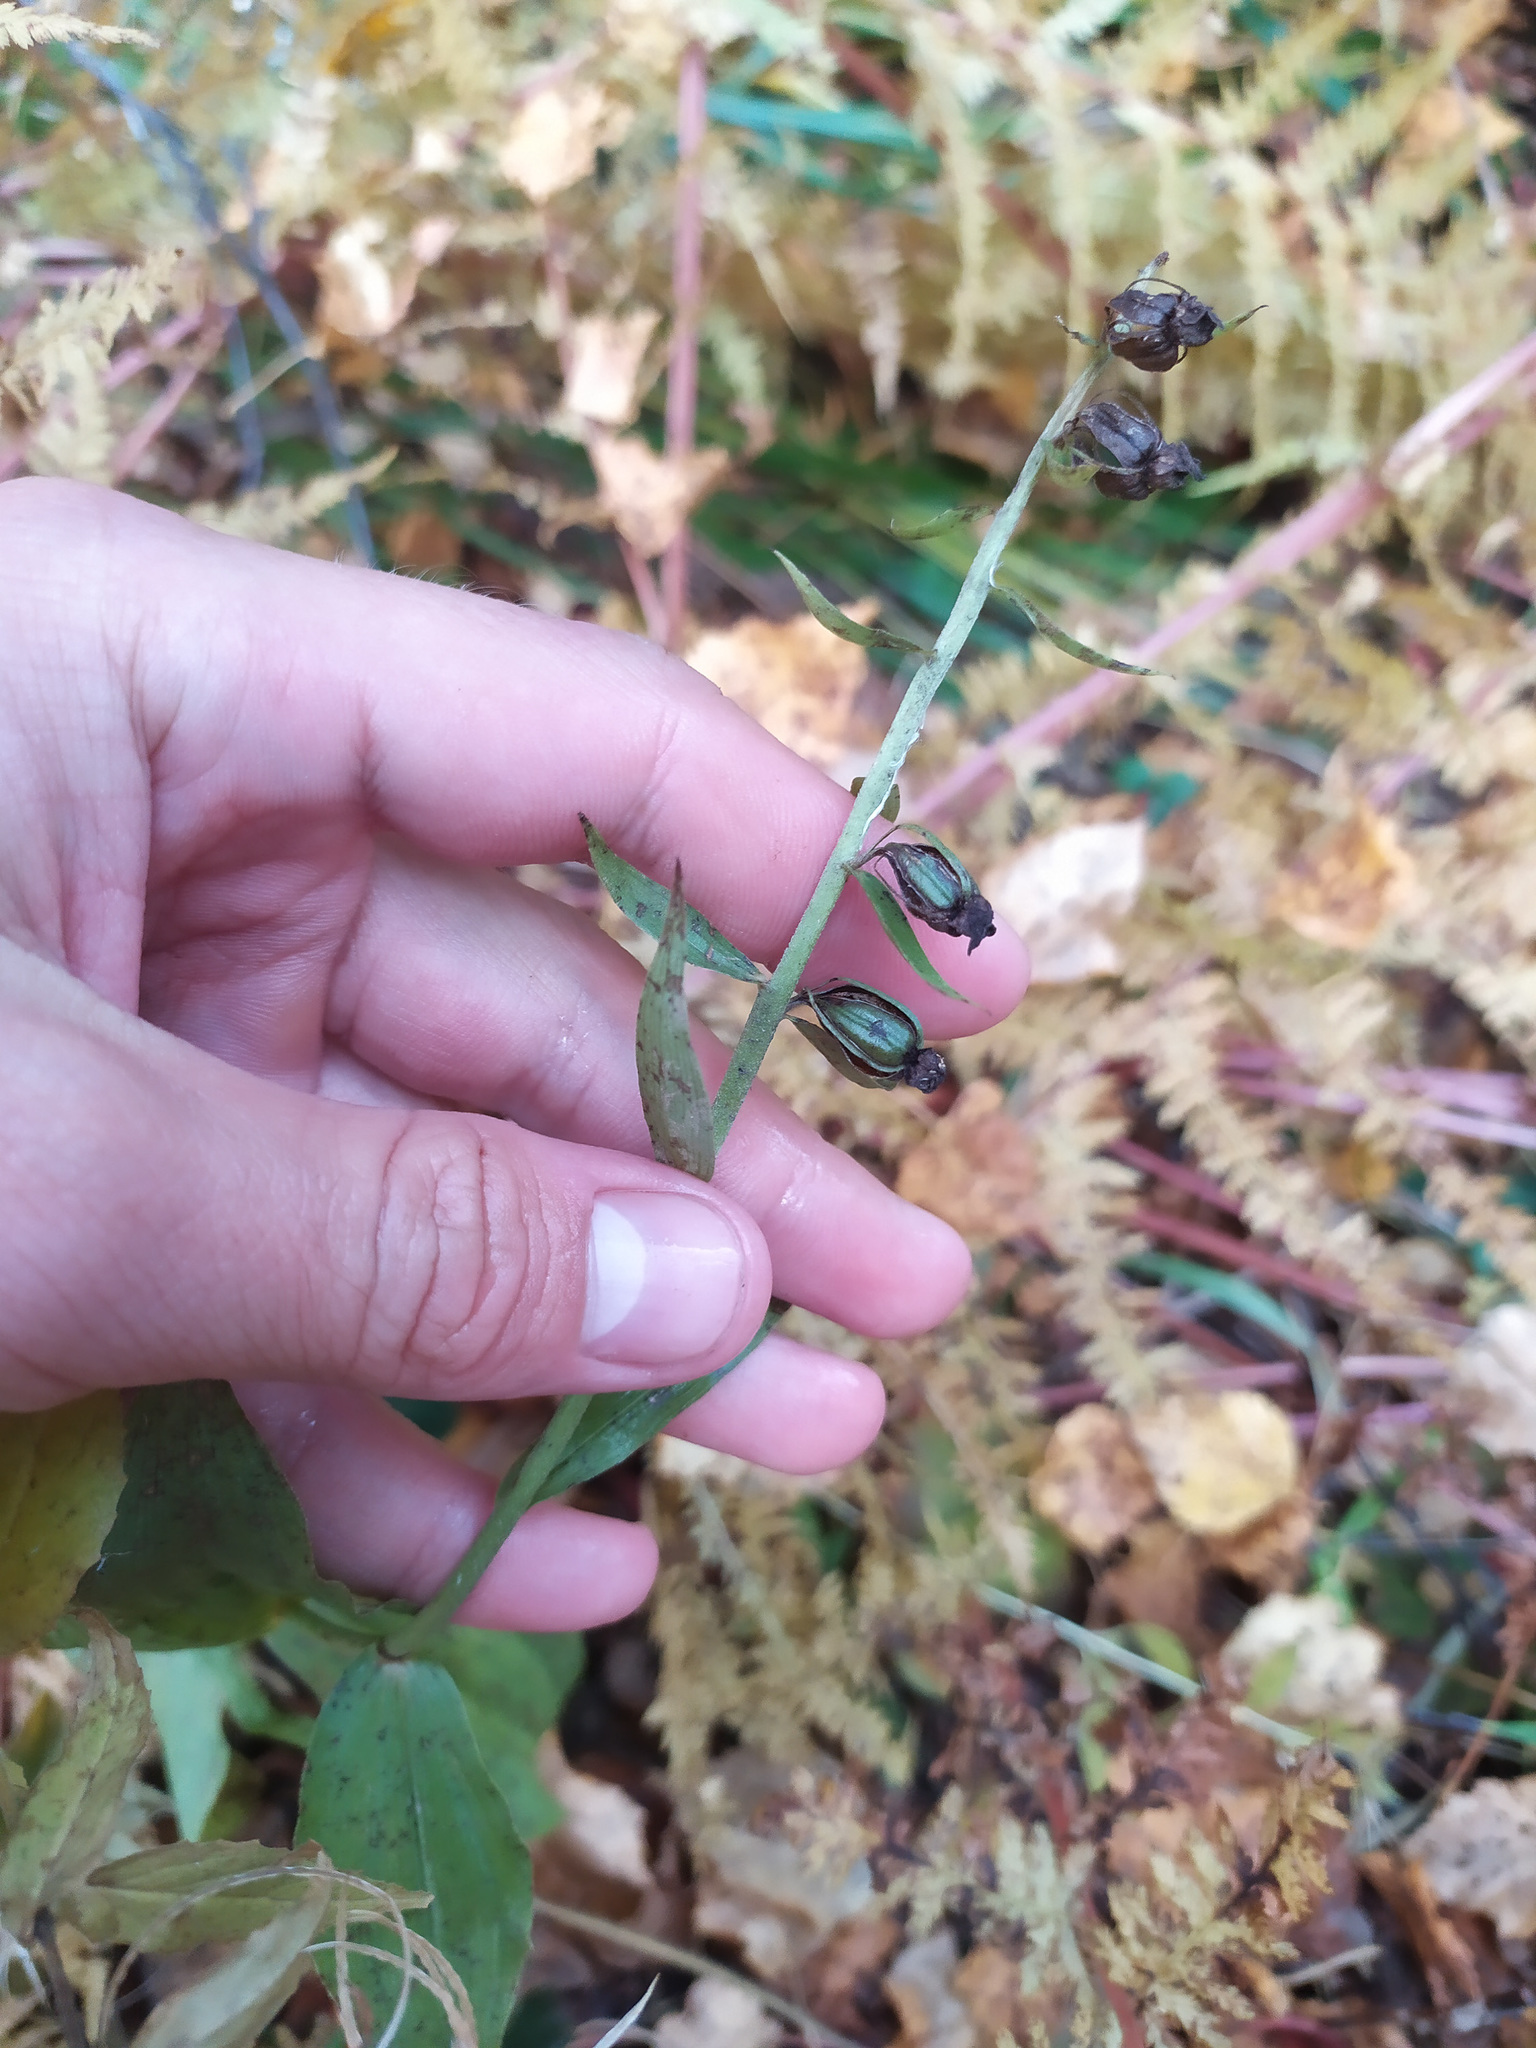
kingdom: Plantae
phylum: Tracheophyta
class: Liliopsida
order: Asparagales
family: Orchidaceae
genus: Epipactis
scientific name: Epipactis helleborine
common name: Broad-leaved helleborine
